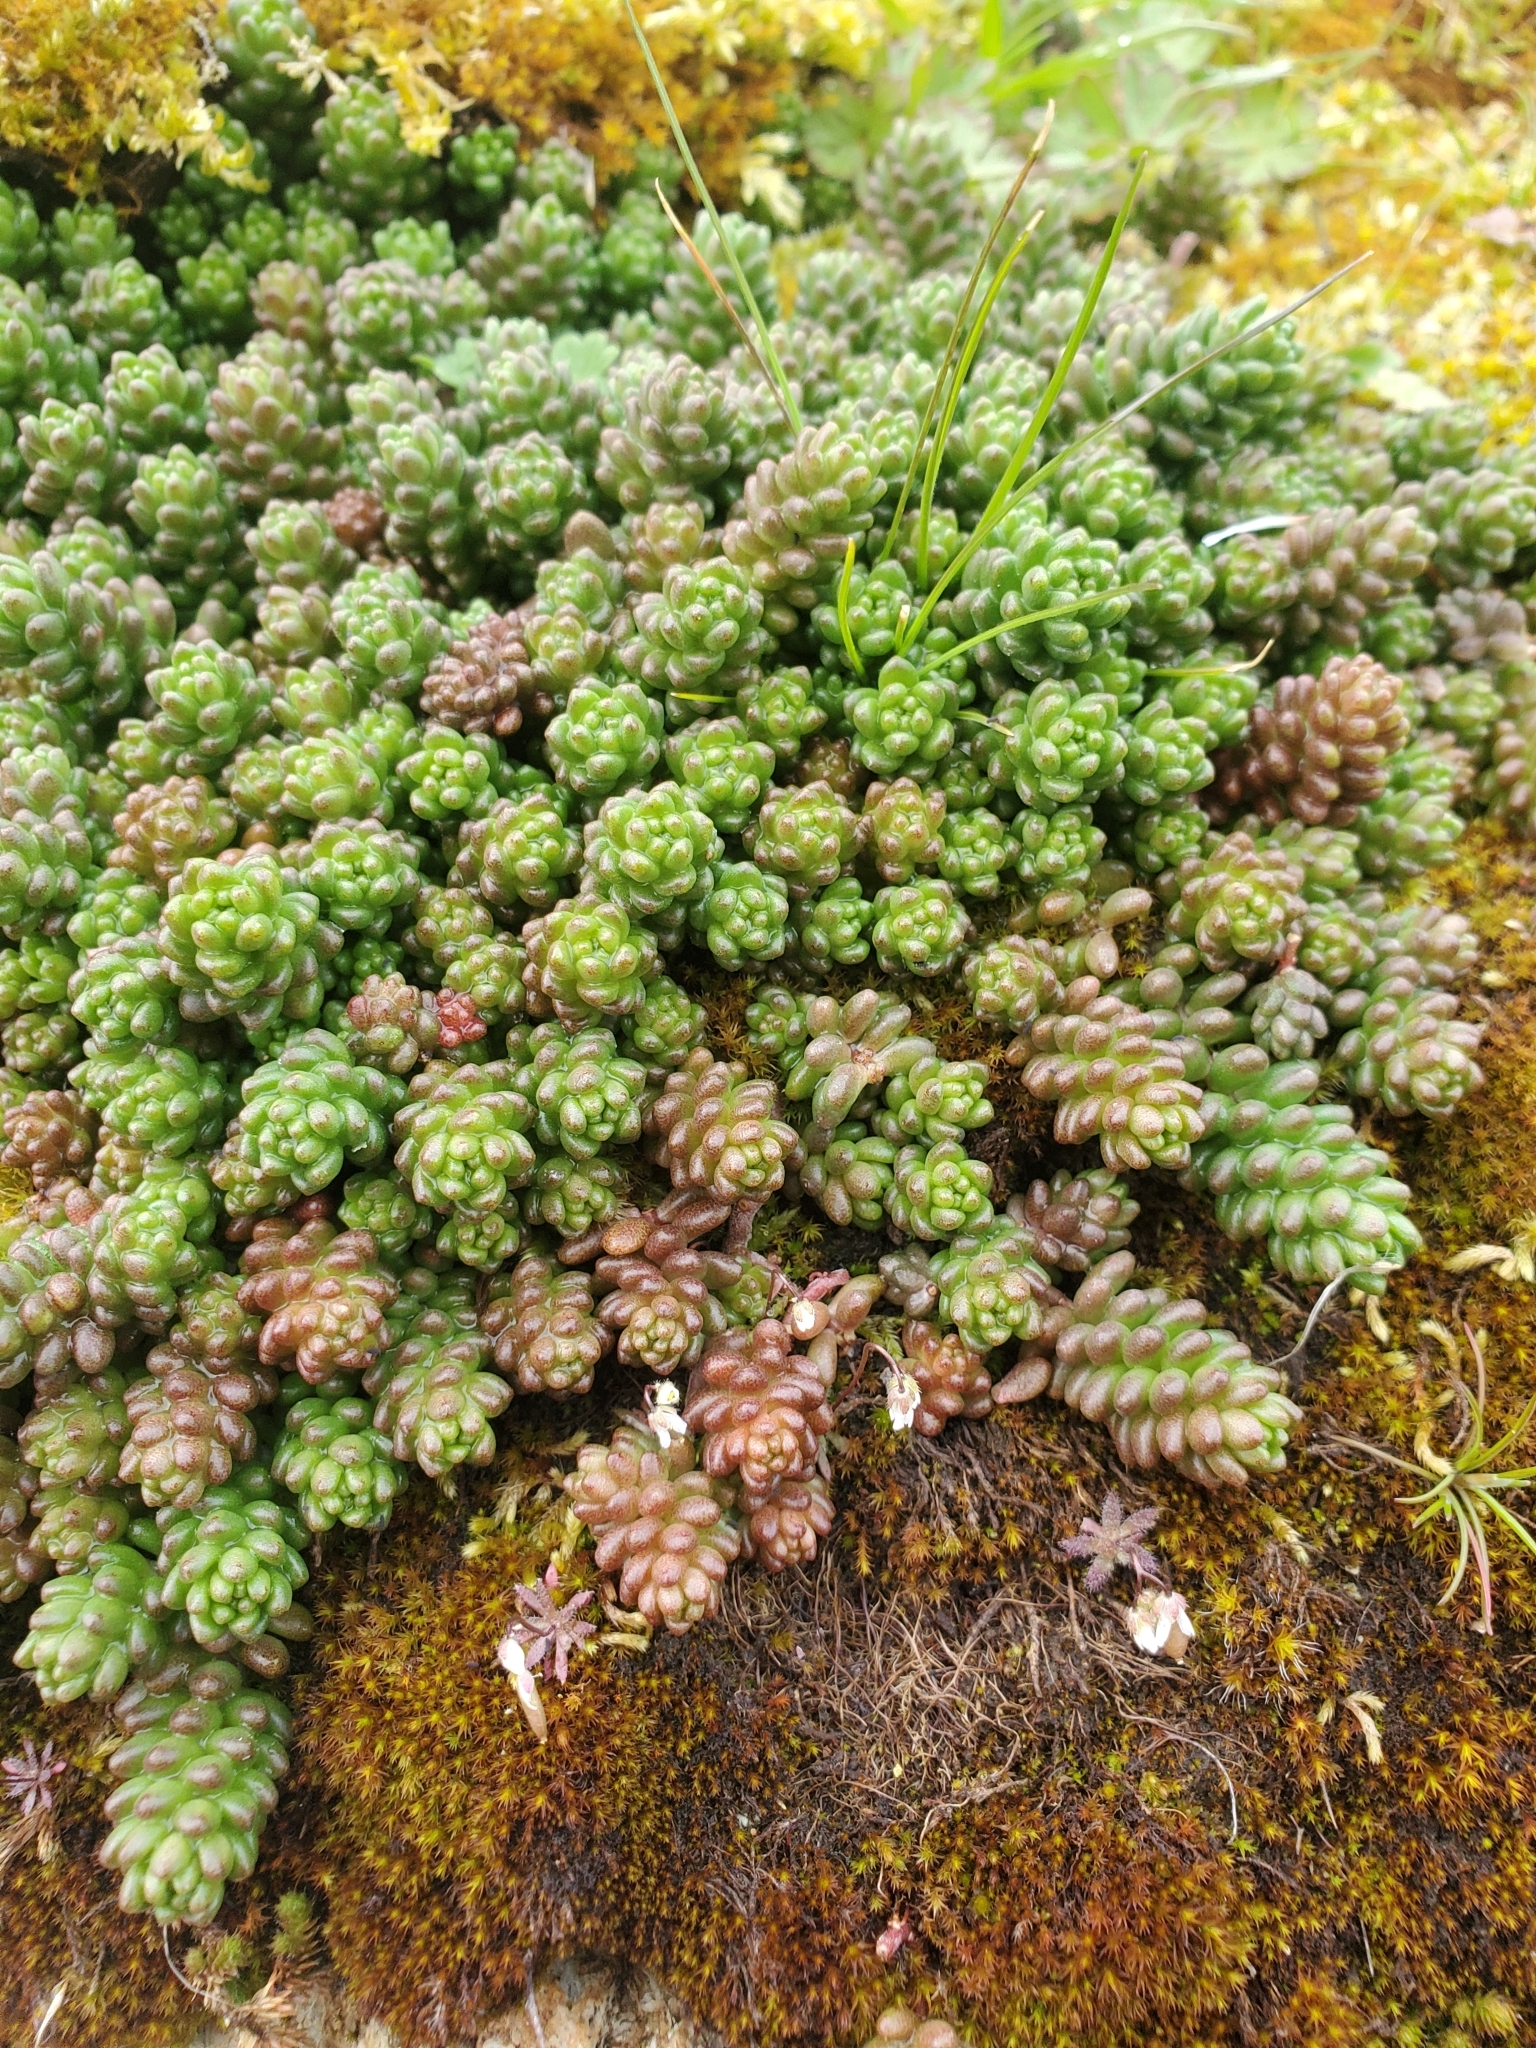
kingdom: Plantae
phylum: Tracheophyta
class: Magnoliopsida
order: Saxifragales
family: Crassulaceae
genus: Sedum
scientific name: Sedum album
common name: White stonecrop
